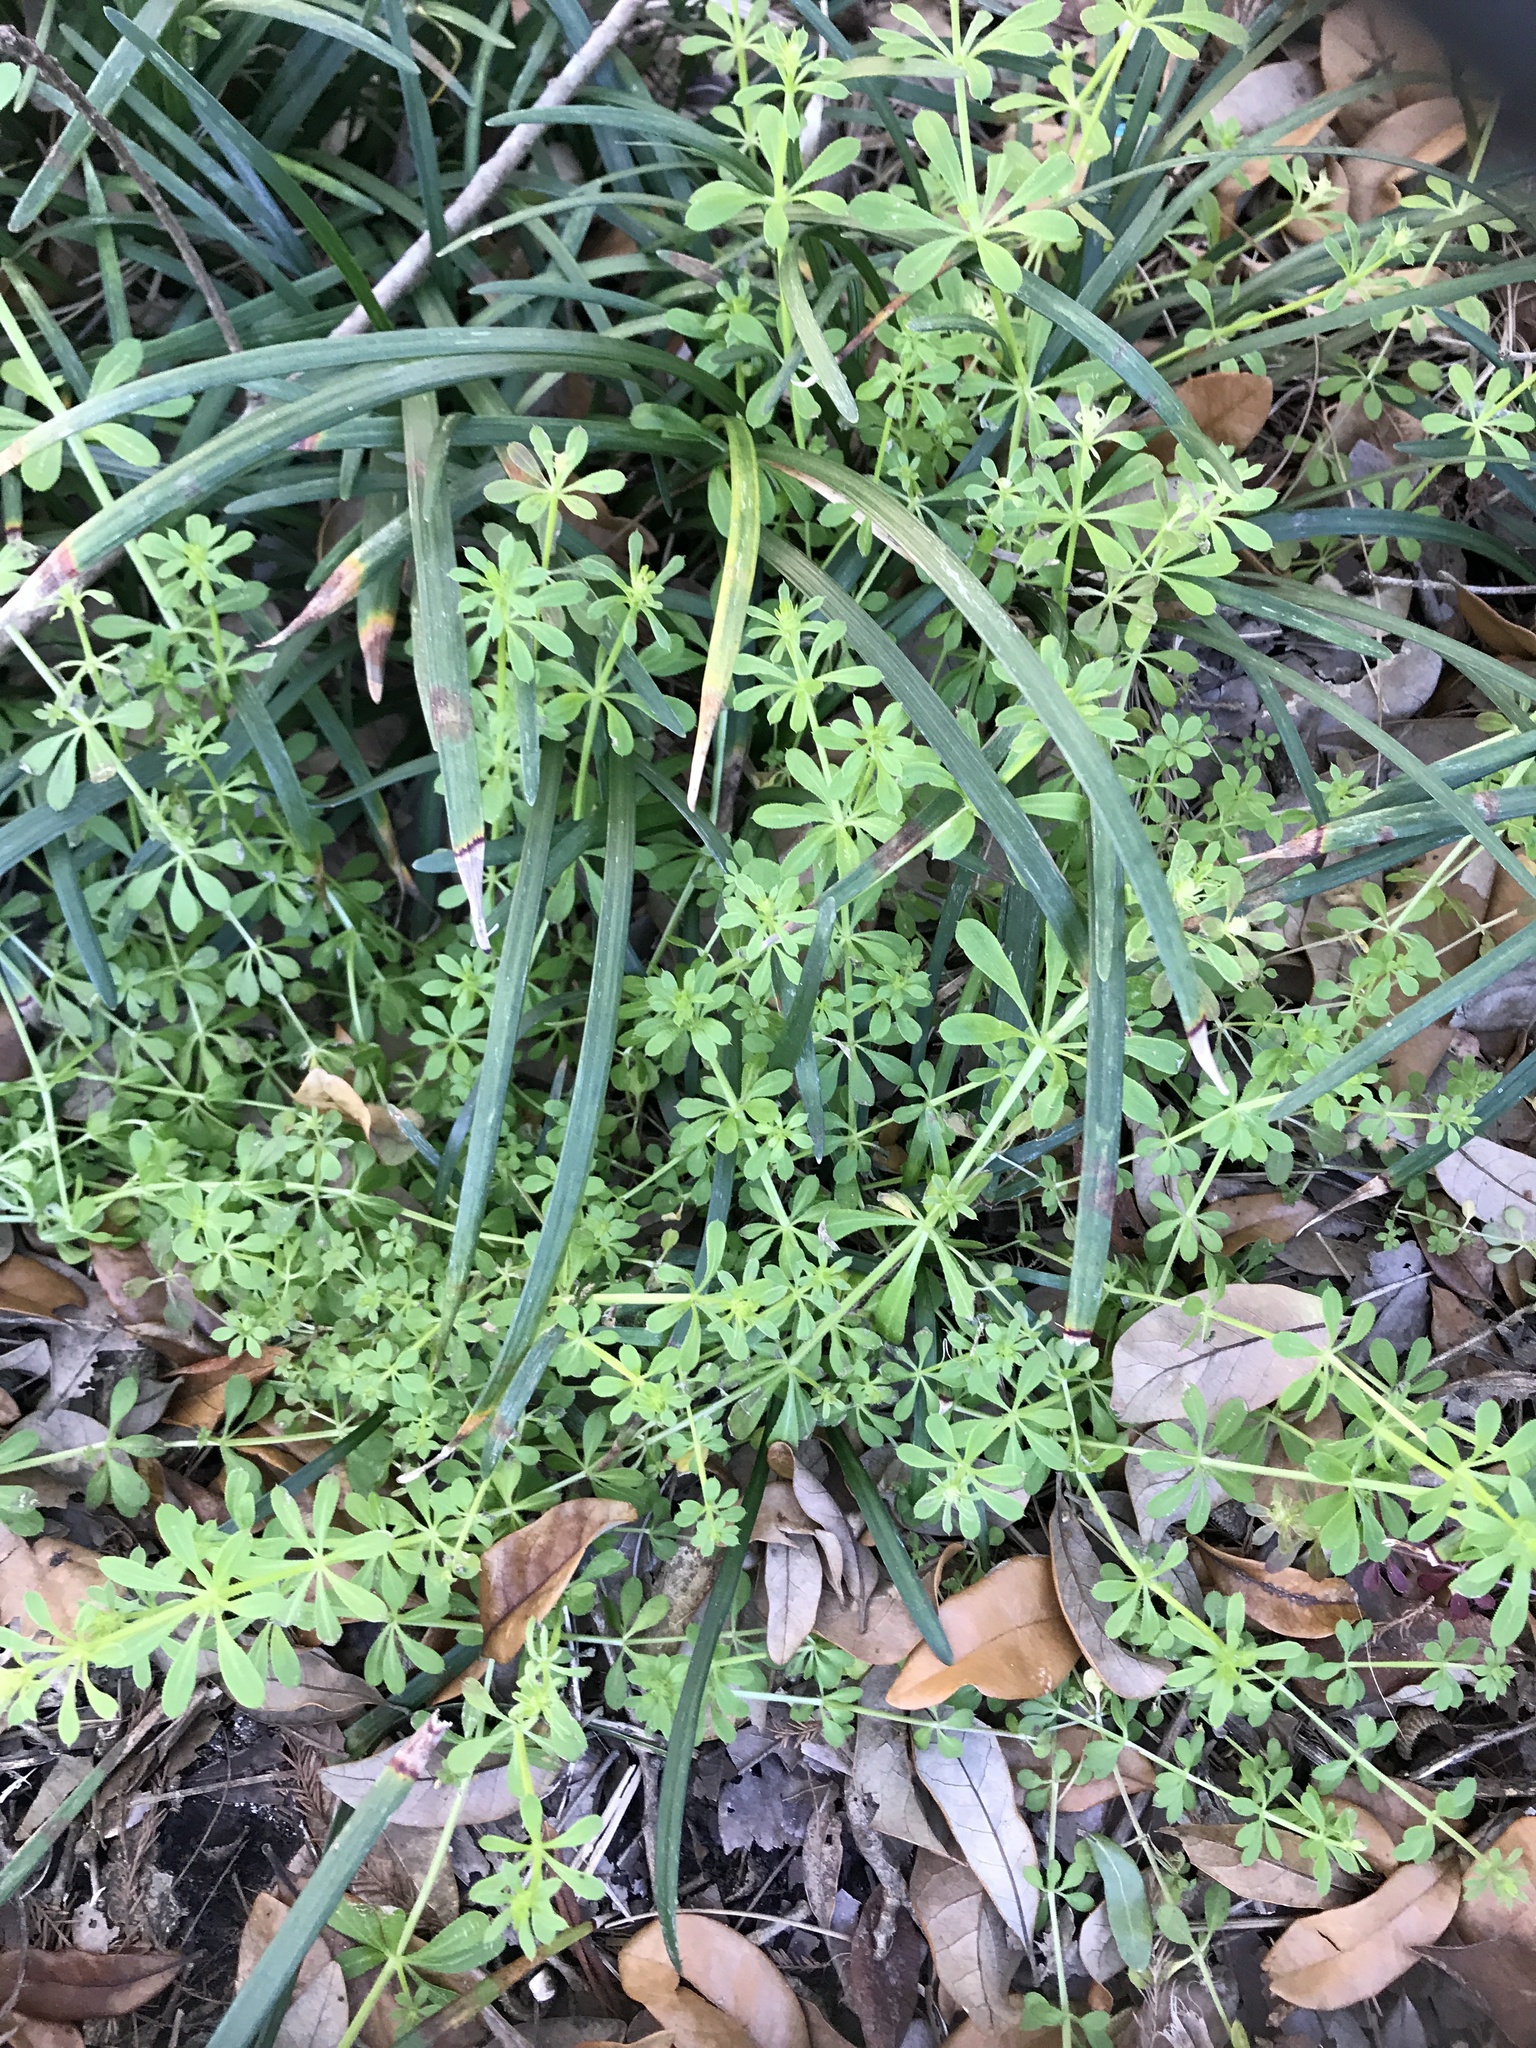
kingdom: Plantae
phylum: Tracheophyta
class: Magnoliopsida
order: Gentianales
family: Rubiaceae
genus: Galium
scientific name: Galium aparine
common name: Cleavers
